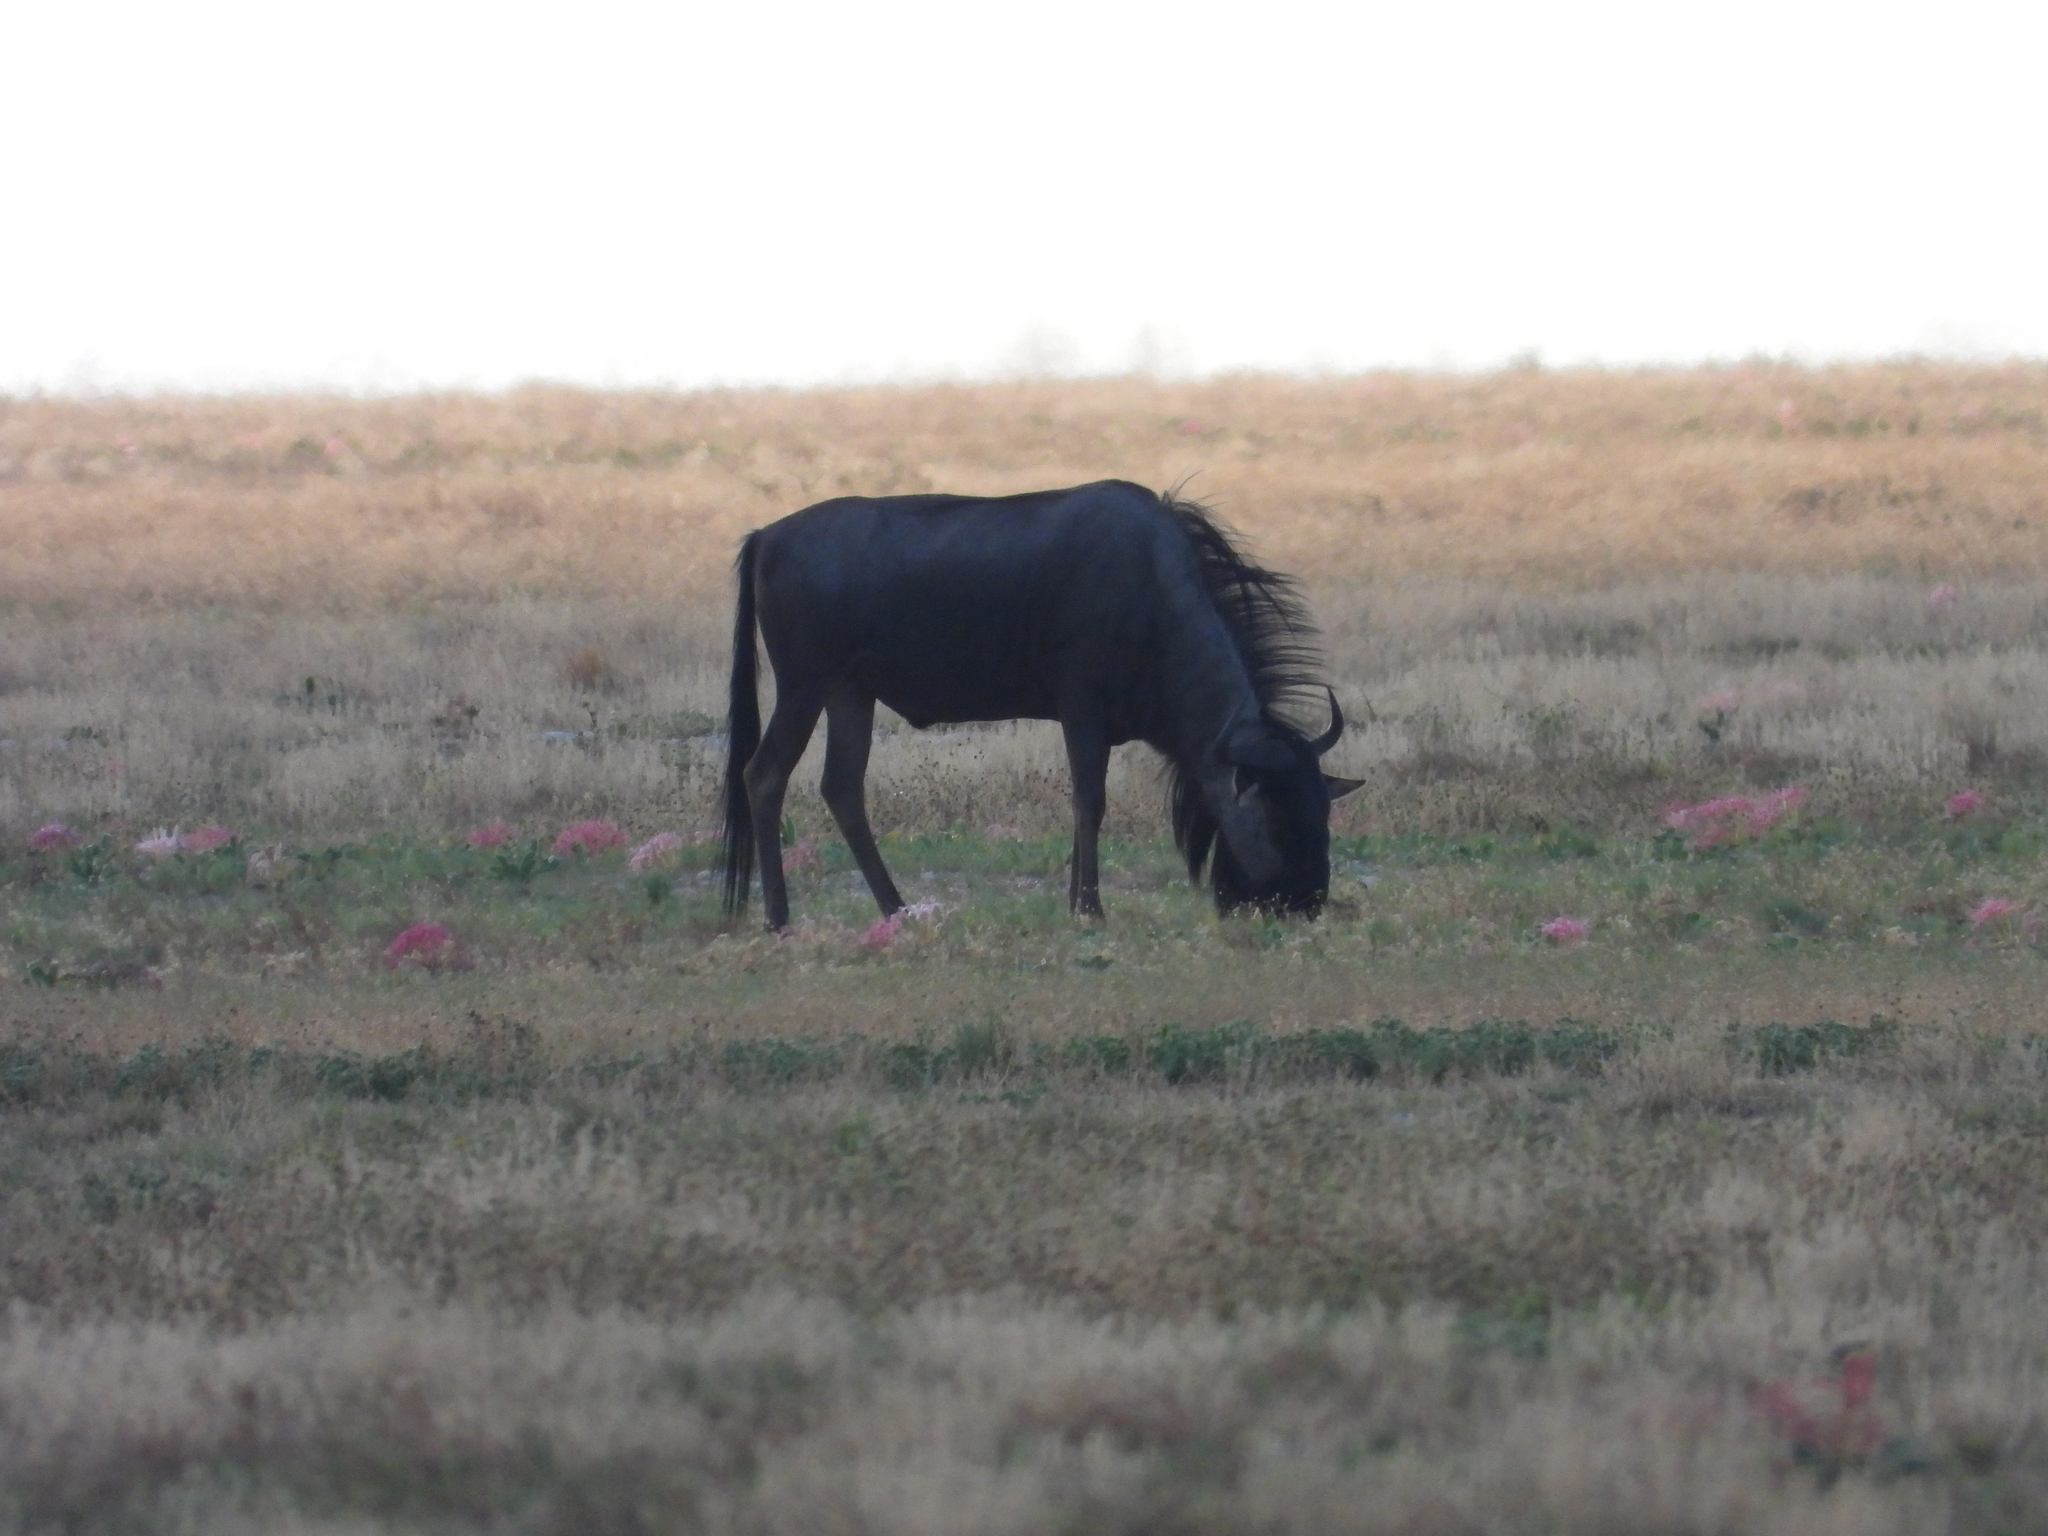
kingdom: Animalia
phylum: Chordata
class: Mammalia
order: Artiodactyla
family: Bovidae
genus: Connochaetes
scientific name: Connochaetes taurinus
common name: Blue wildebeest
